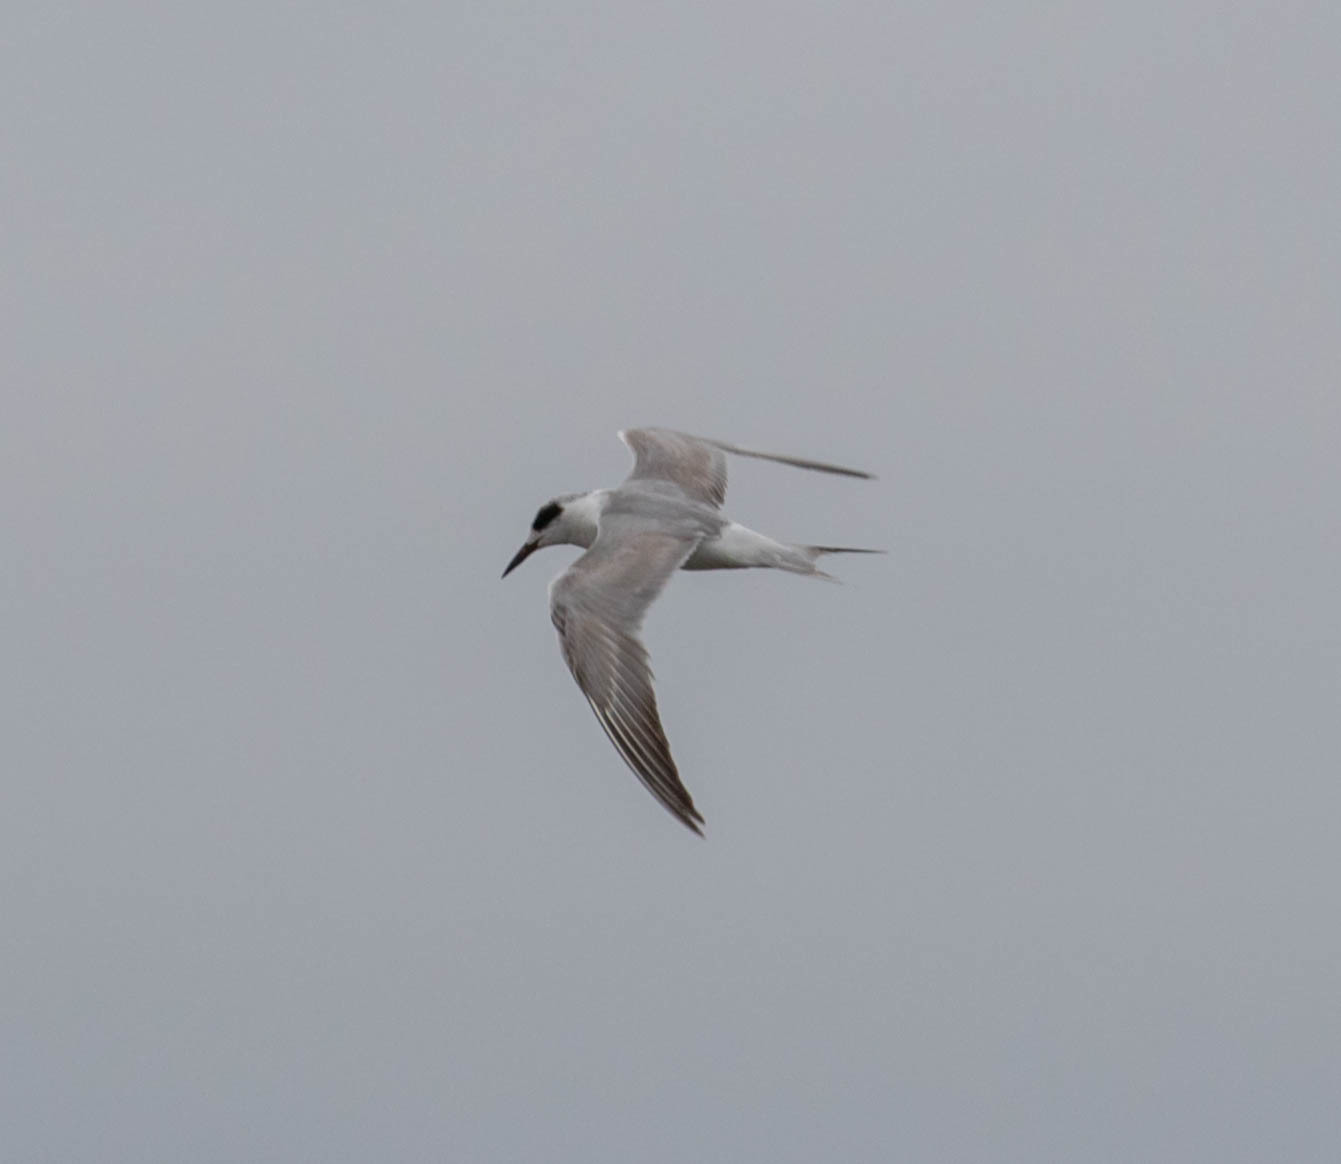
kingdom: Animalia
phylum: Chordata
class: Aves
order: Charadriiformes
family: Laridae
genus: Sterna
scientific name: Sterna forsteri
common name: Forster's tern
